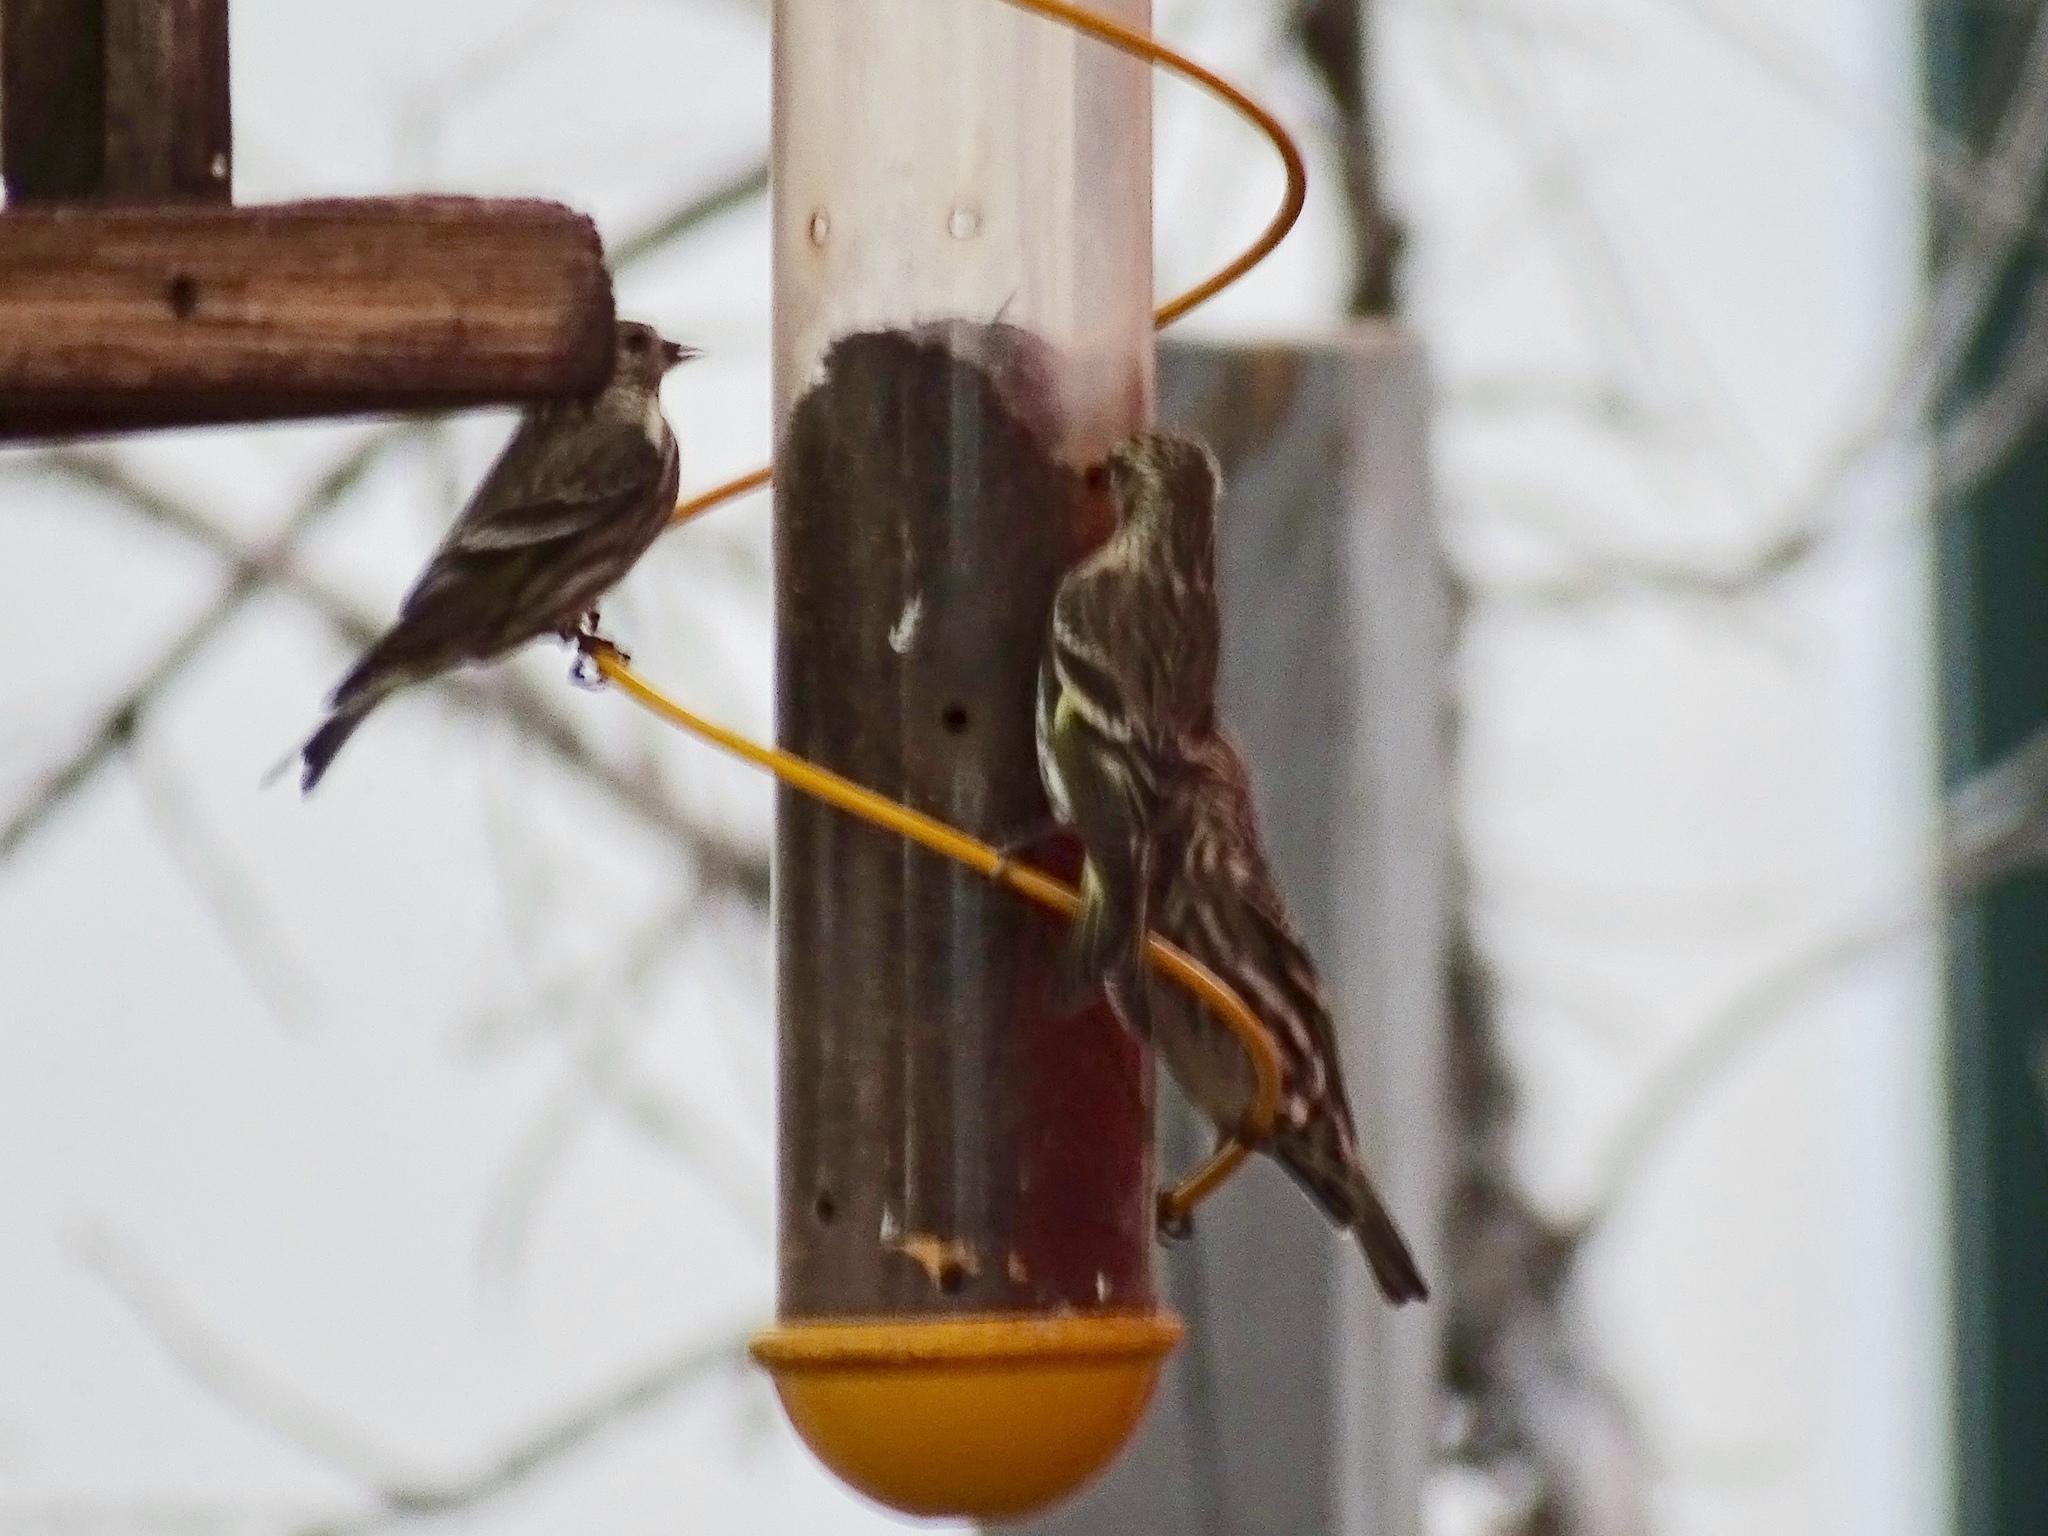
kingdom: Animalia
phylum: Chordata
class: Aves
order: Passeriformes
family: Fringillidae
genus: Spinus
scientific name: Spinus pinus
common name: Pine siskin
